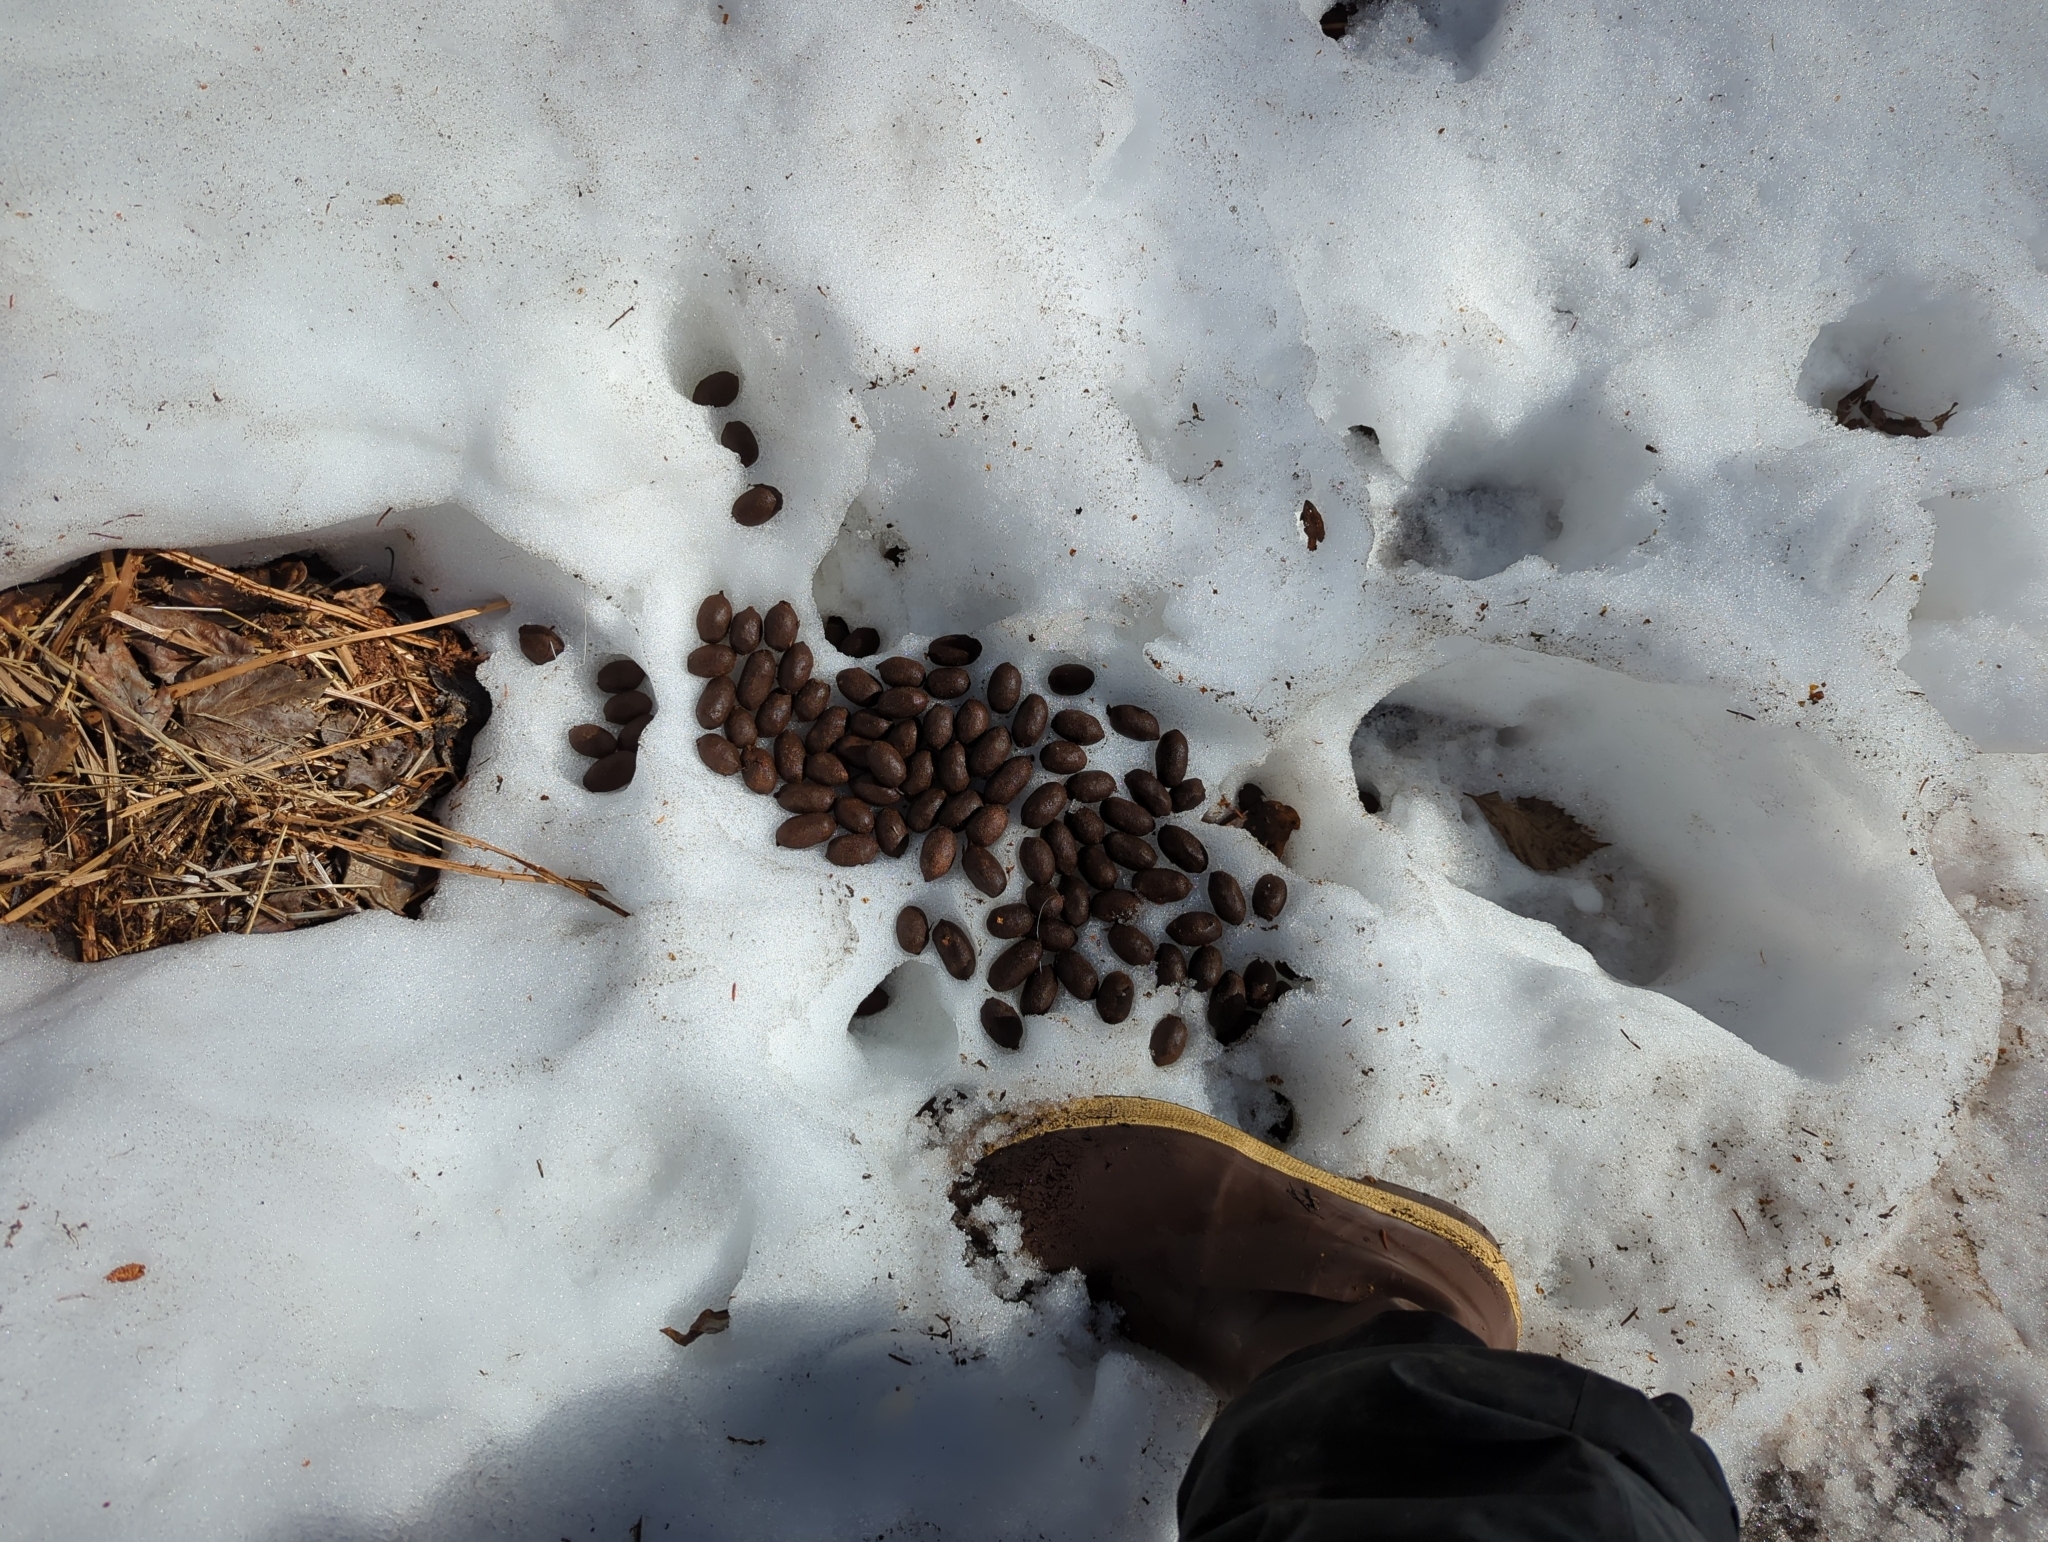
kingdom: Animalia
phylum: Chordata
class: Mammalia
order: Artiodactyla
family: Cervidae
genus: Alces
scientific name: Alces alces
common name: Moose
